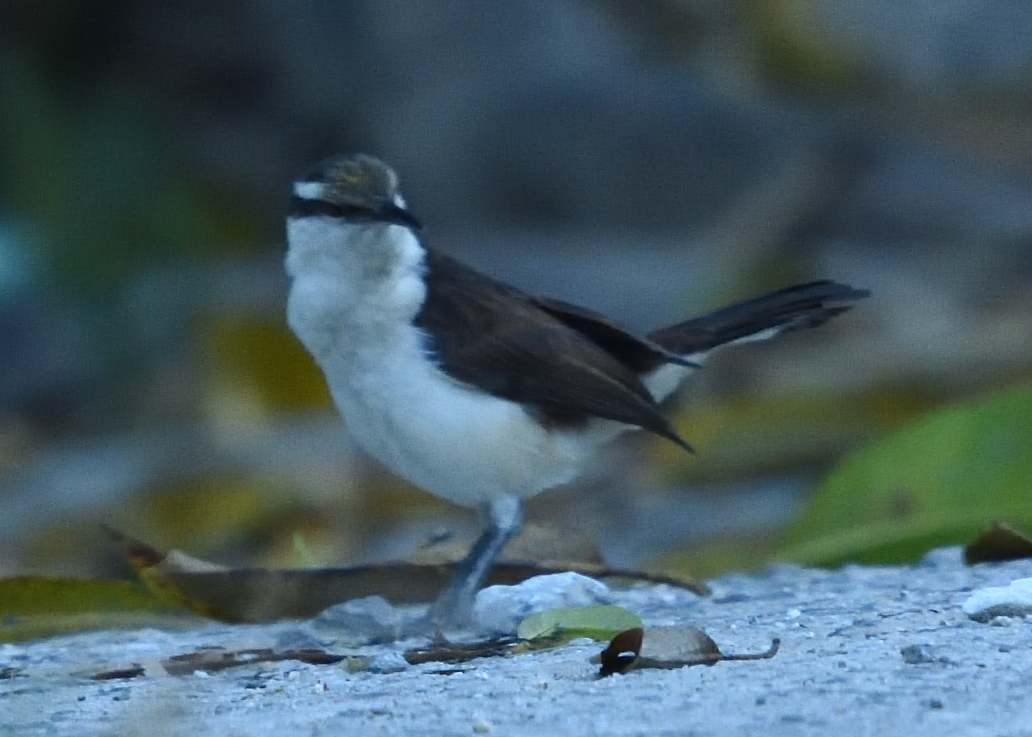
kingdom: Animalia
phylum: Chordata
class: Aves
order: Passeriformes
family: Troglodytidae
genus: Campylorhynchus
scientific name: Campylorhynchus griseus
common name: Bicolored wren
